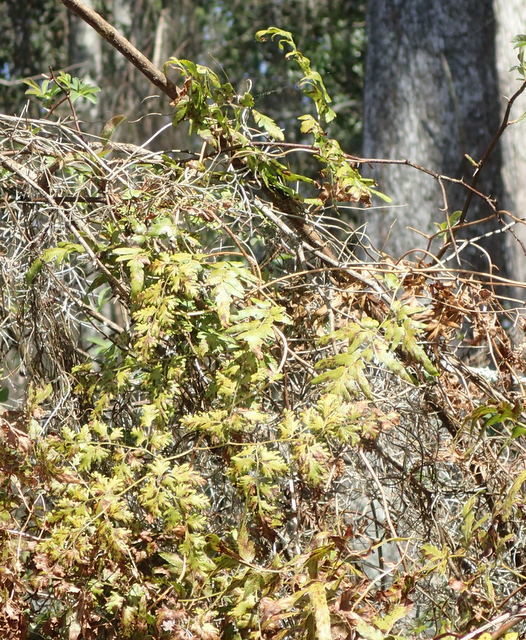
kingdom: Plantae
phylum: Tracheophyta
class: Polypodiopsida
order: Schizaeales
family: Lygodiaceae
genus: Lygodium
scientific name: Lygodium japonicum
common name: Japanese climbing fern
